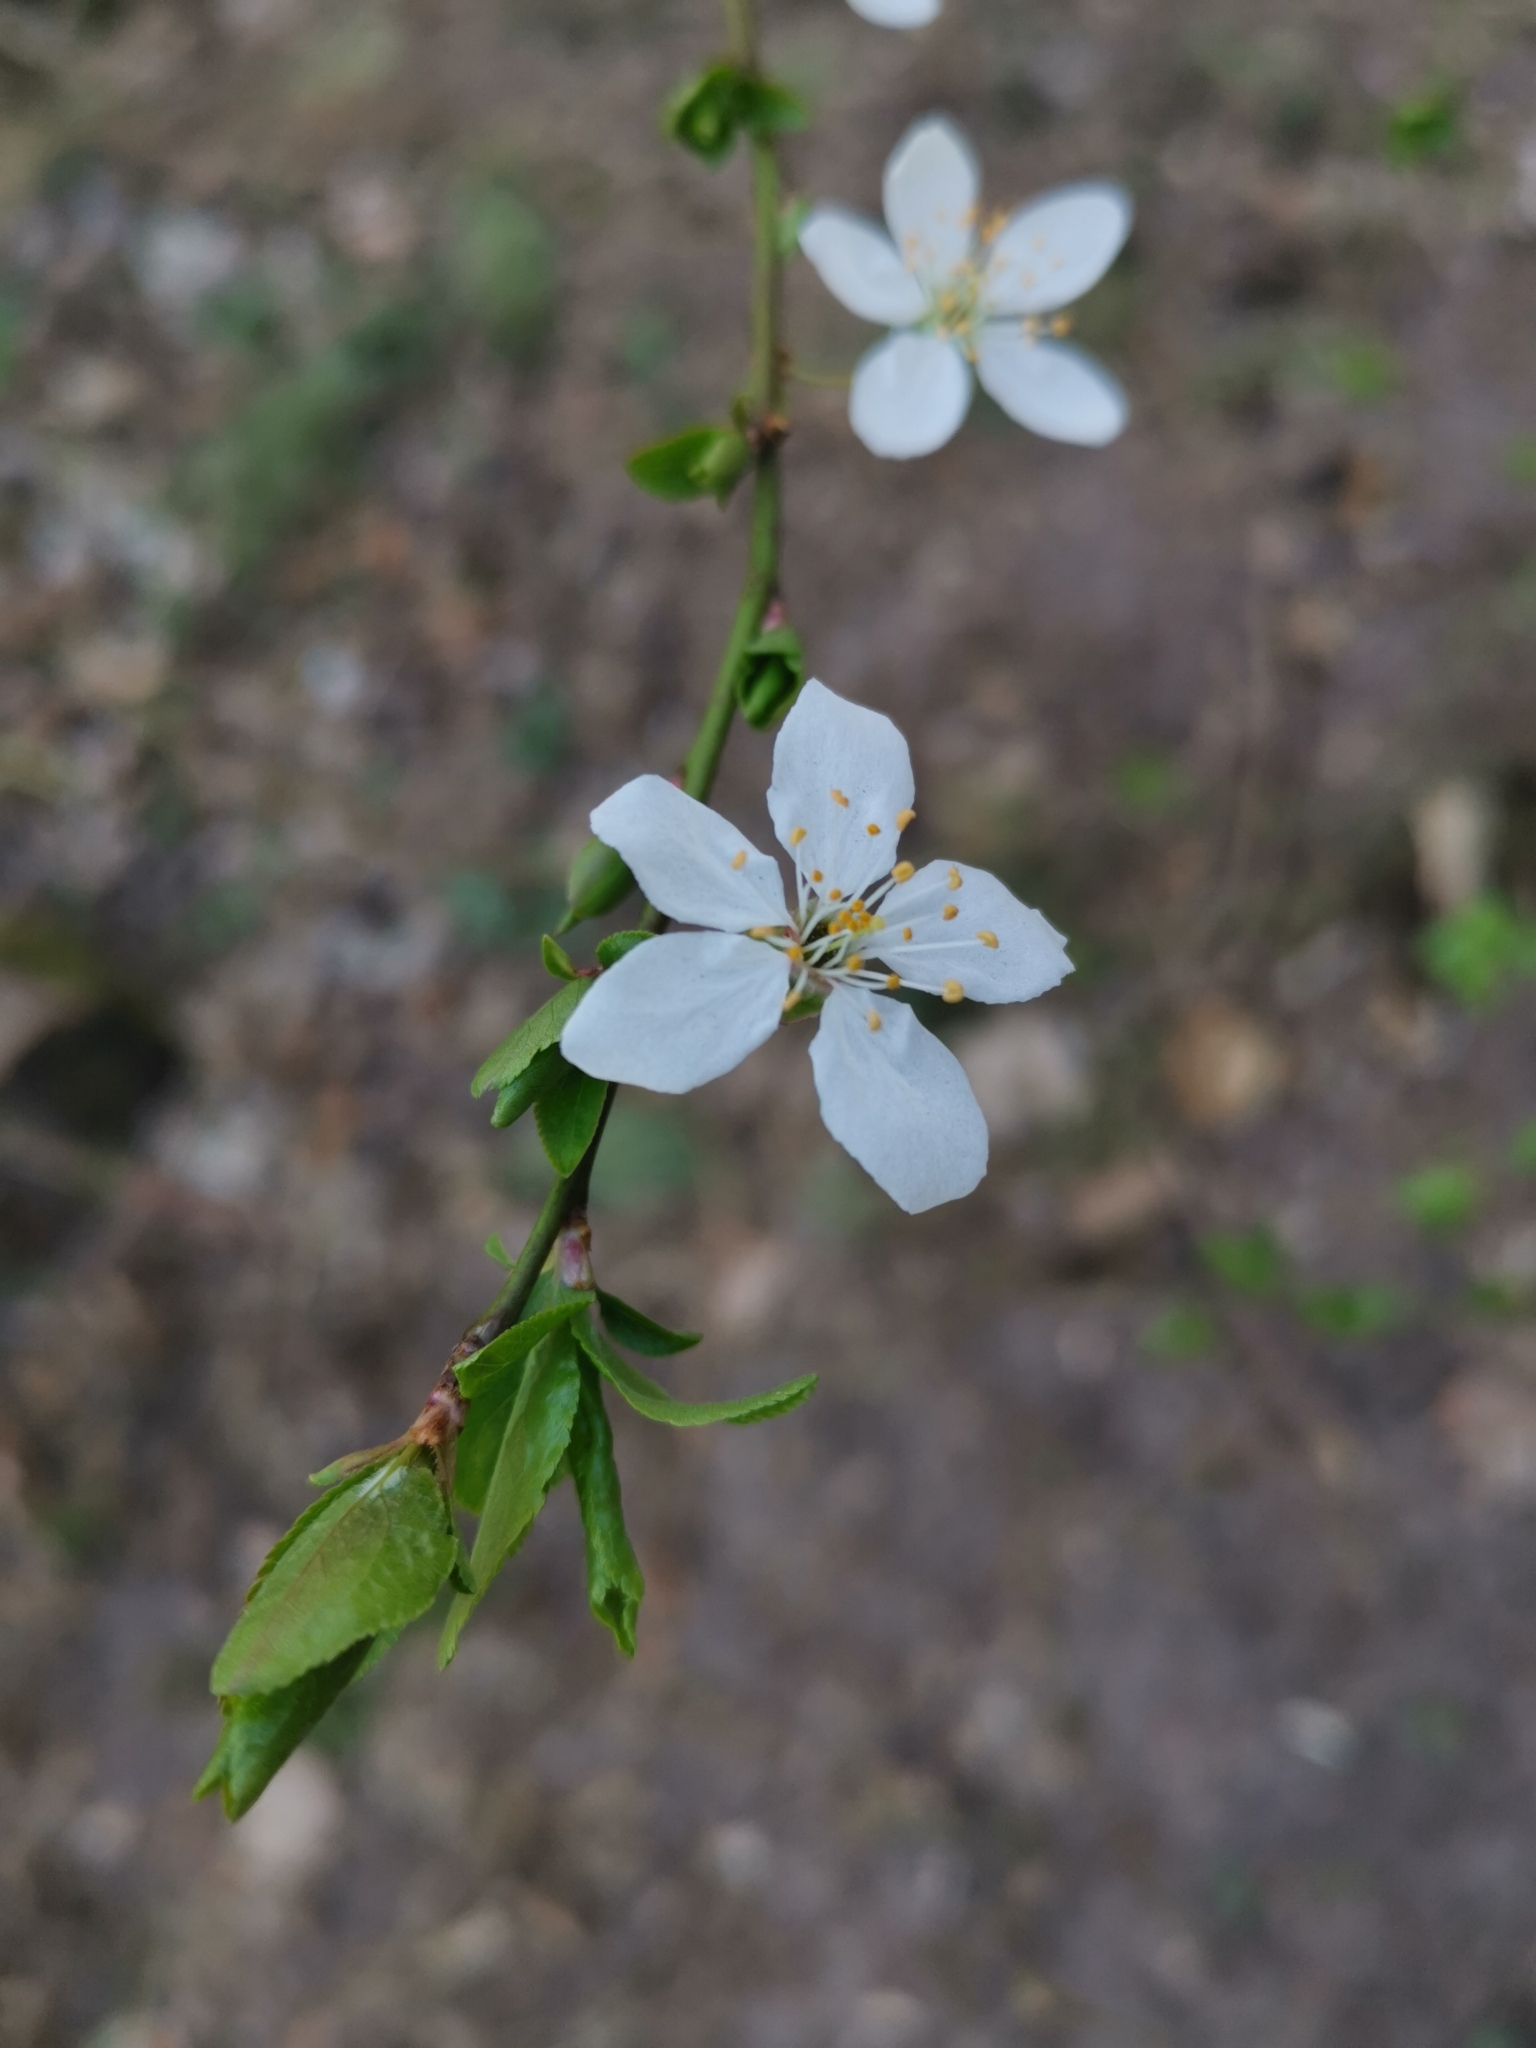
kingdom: Plantae
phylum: Tracheophyta
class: Magnoliopsida
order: Rosales
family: Rosaceae
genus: Prunus
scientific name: Prunus cerasifera
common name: Cherry plum
